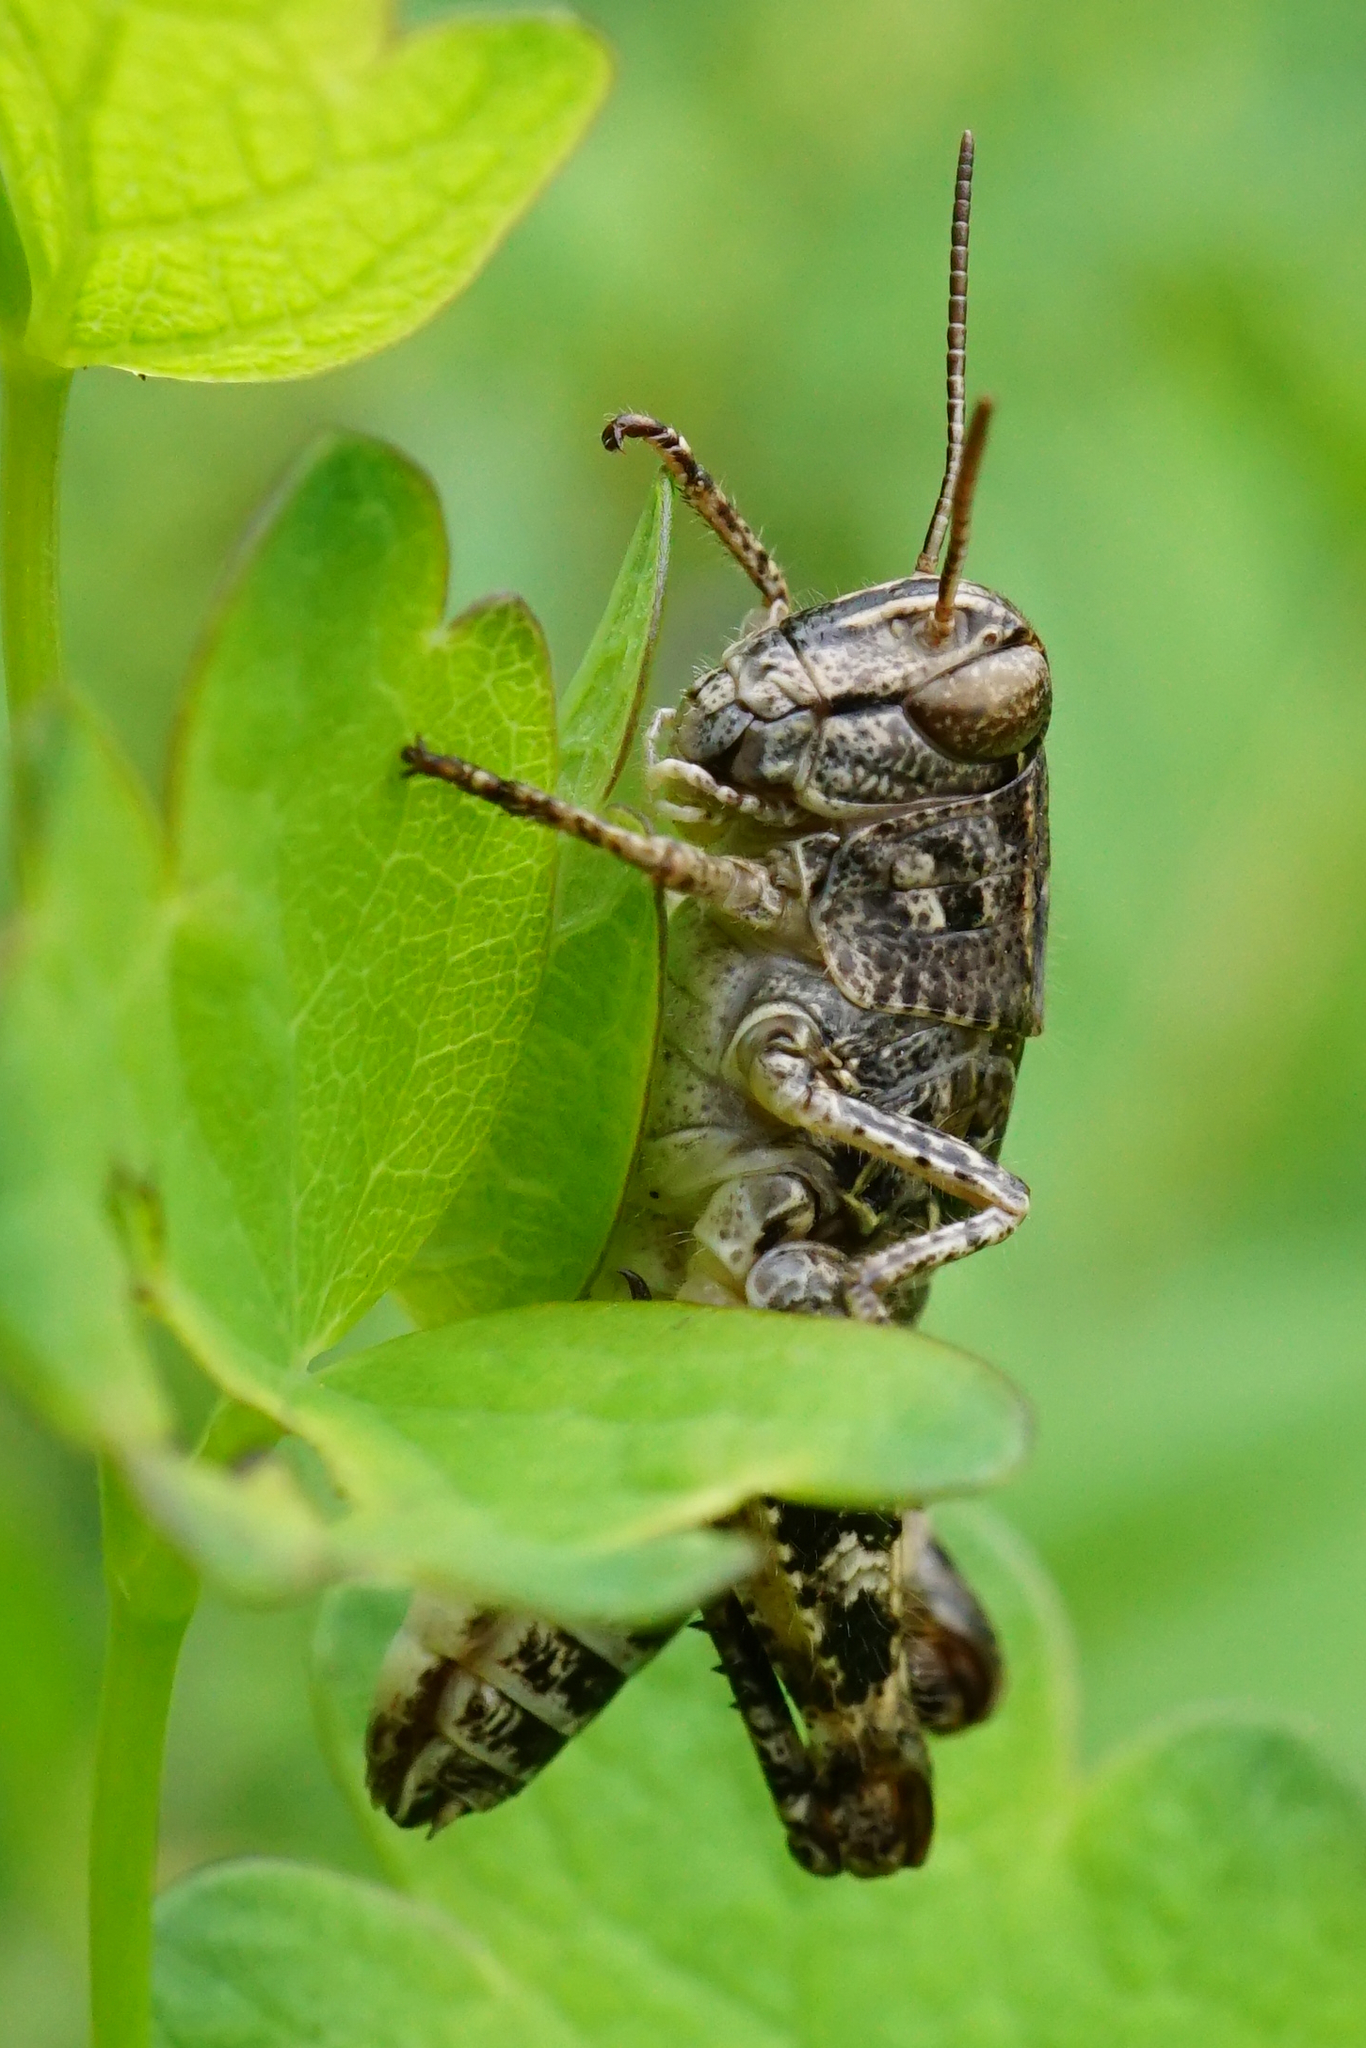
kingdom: Animalia
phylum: Arthropoda
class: Insecta
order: Orthoptera
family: Acrididae
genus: Calliptamus
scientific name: Calliptamus italicus
